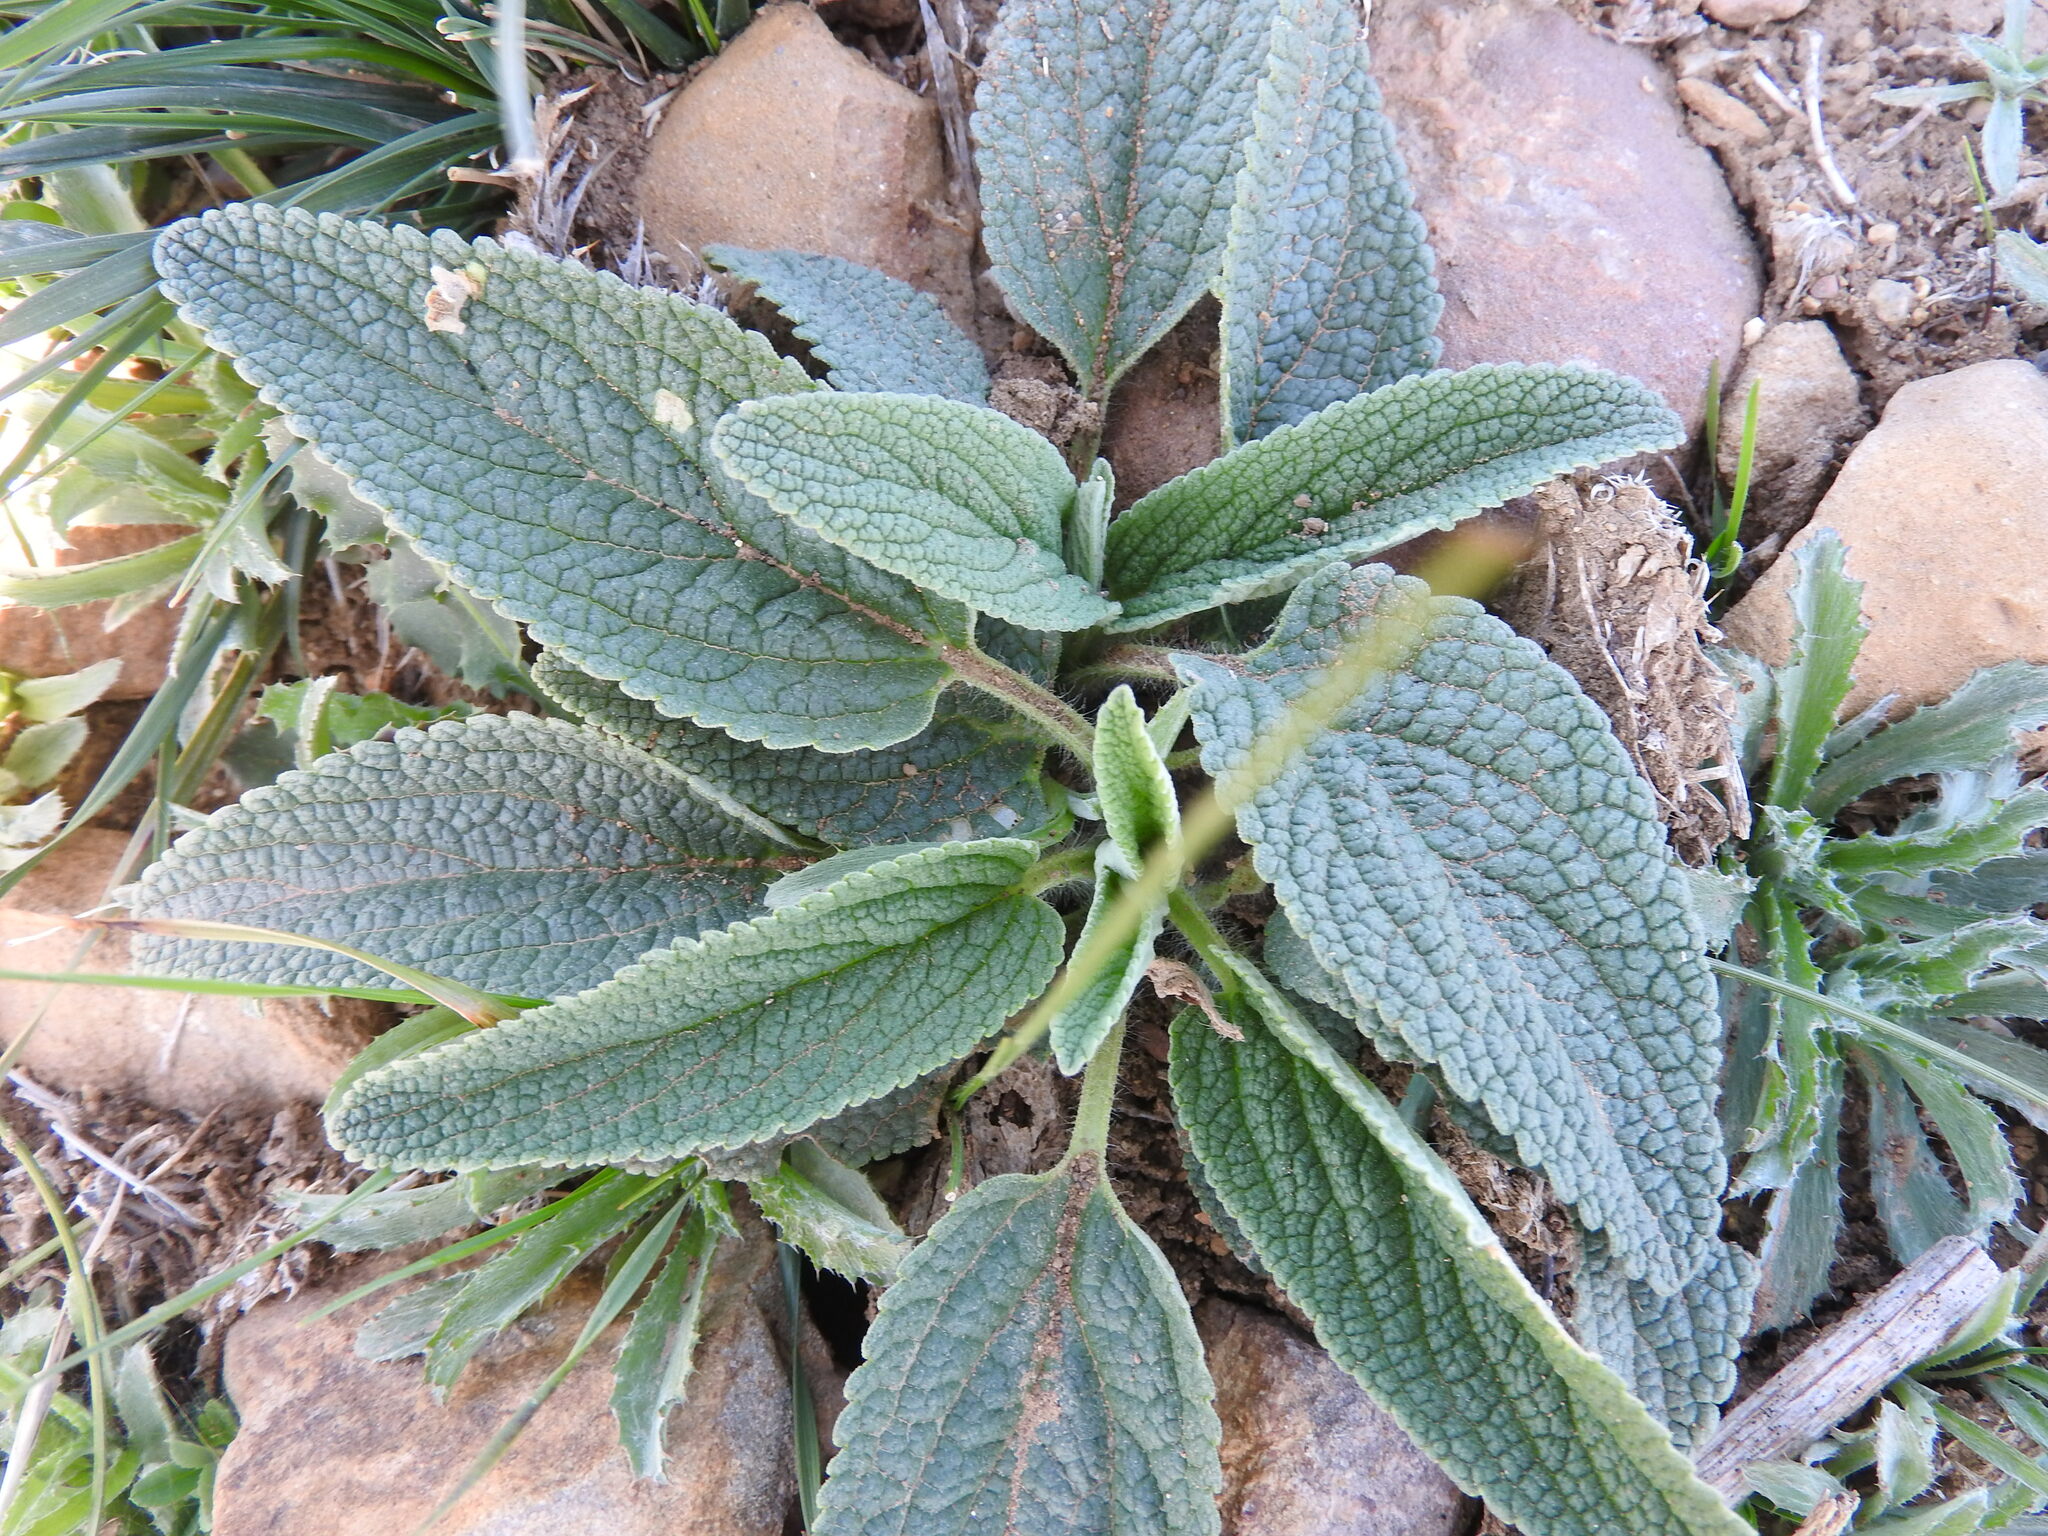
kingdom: Plantae
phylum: Tracheophyta
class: Magnoliopsida
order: Lamiales
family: Lamiaceae
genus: Phlomis
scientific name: Phlomis herba-venti
